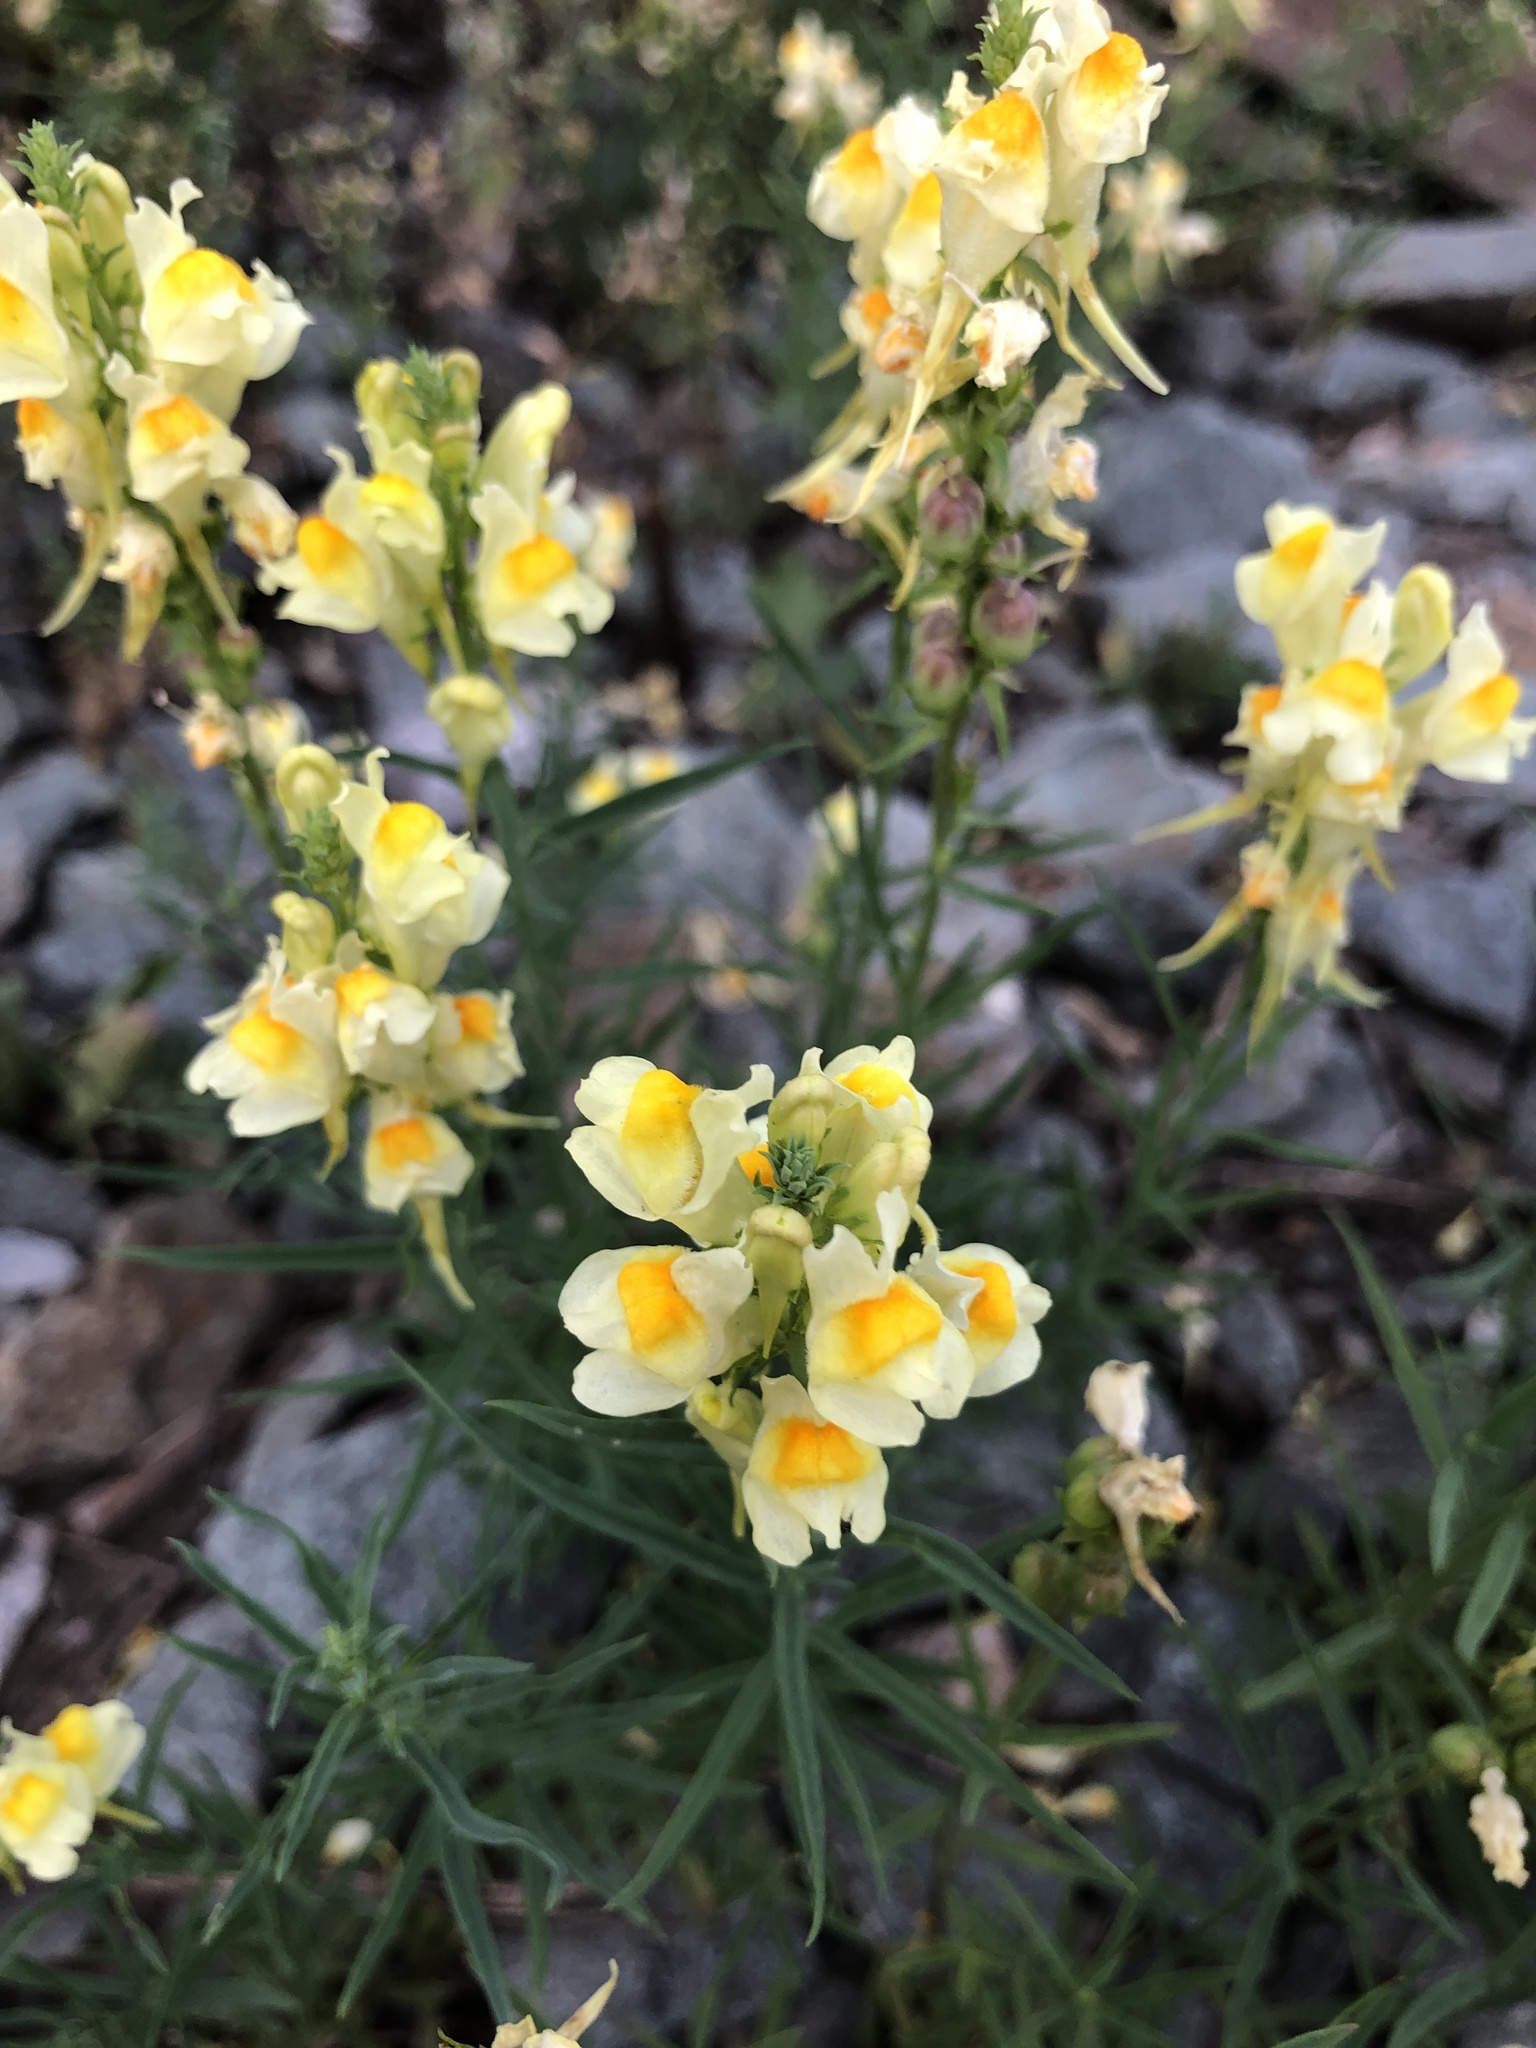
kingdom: Plantae
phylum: Tracheophyta
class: Magnoliopsida
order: Lamiales
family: Plantaginaceae
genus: Linaria
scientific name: Linaria vulgaris
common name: Butter and eggs
